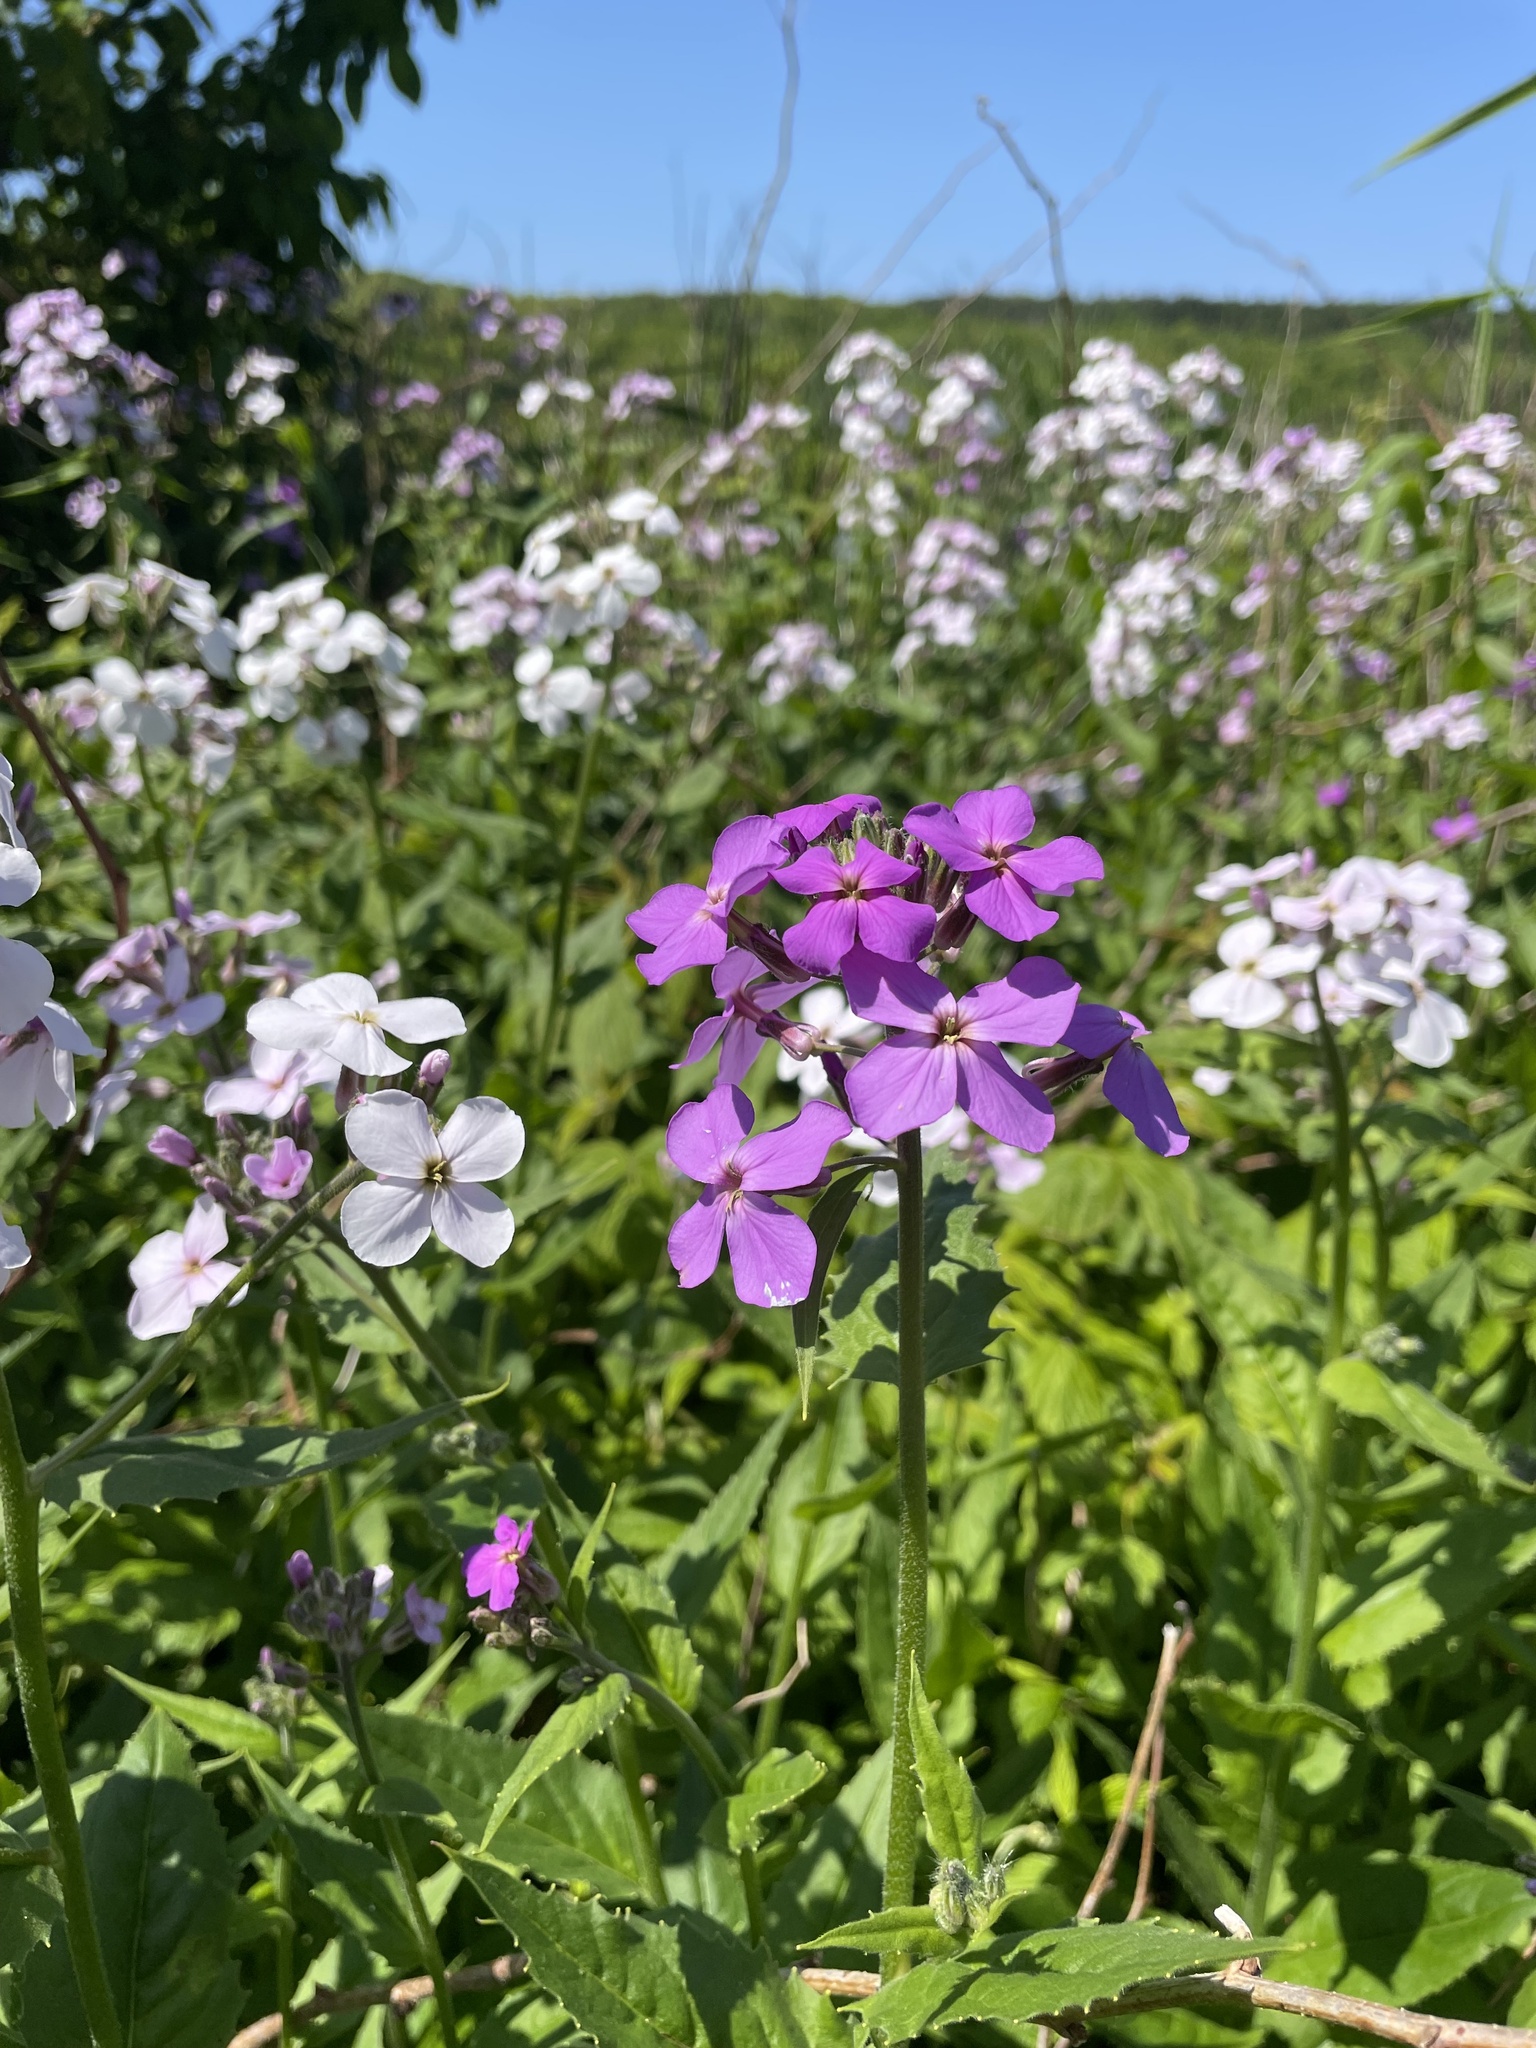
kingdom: Plantae
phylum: Tracheophyta
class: Magnoliopsida
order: Brassicales
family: Brassicaceae
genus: Hesperis
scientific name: Hesperis matronalis
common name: Dame's-violet
